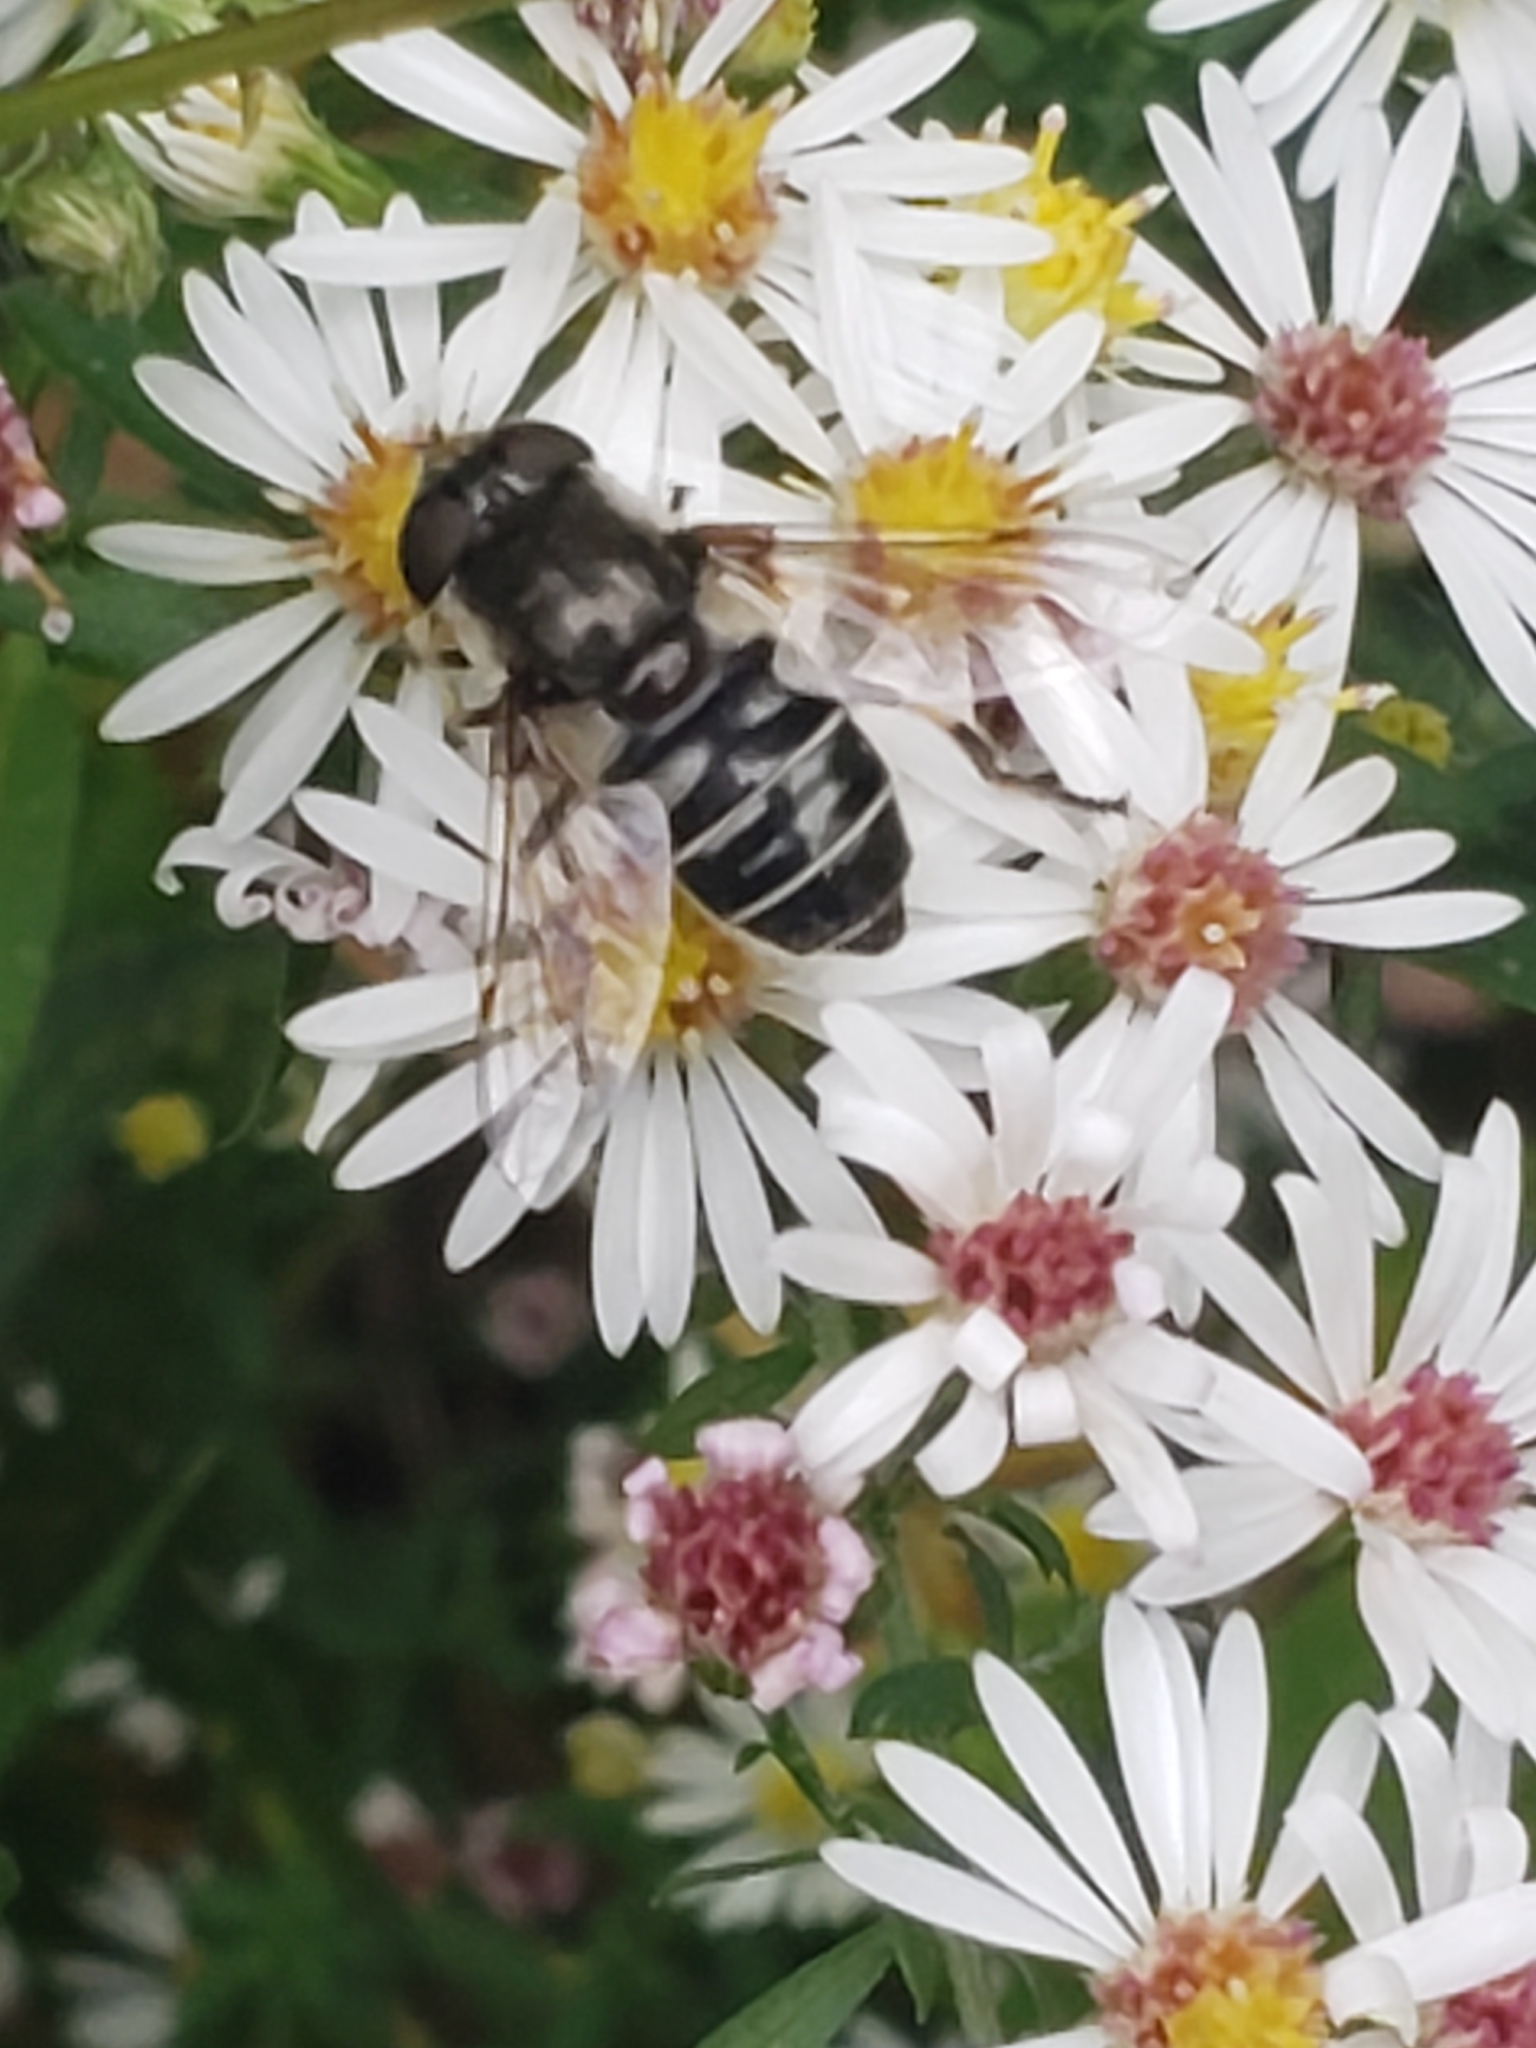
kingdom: Animalia
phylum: Arthropoda
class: Insecta
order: Diptera
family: Syrphidae
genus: Eristalis
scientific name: Eristalis dimidiata
